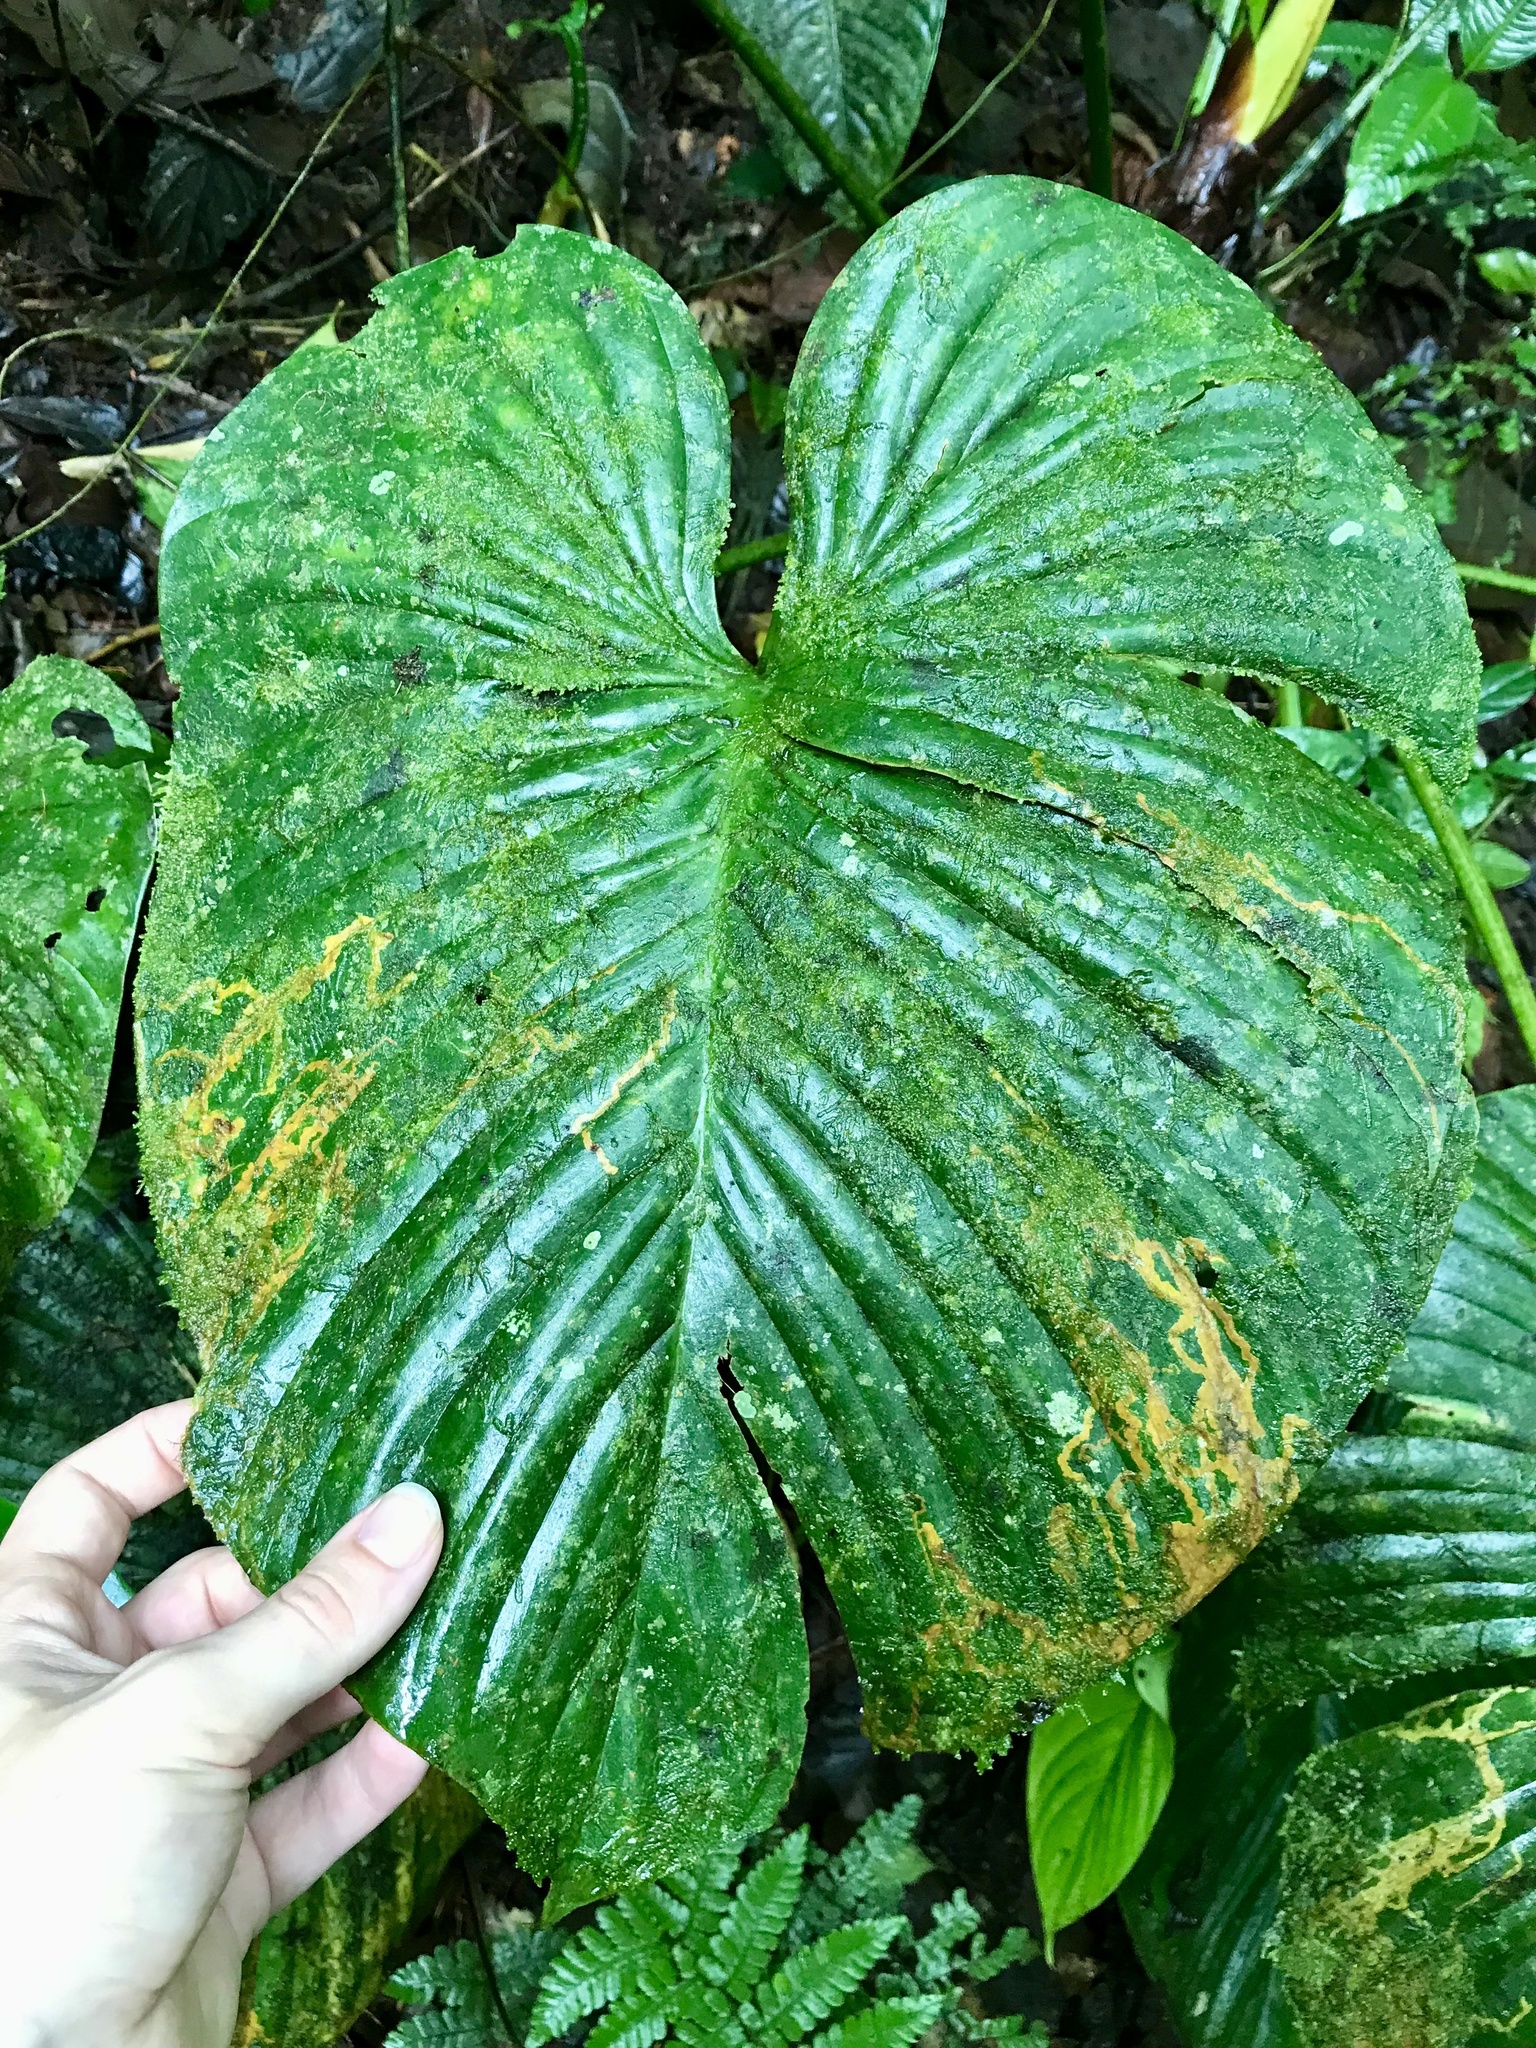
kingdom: Plantae
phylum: Tracheophyta
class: Liliopsida
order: Alismatales
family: Araceae
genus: Philodendron
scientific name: Philodendron grandipes
